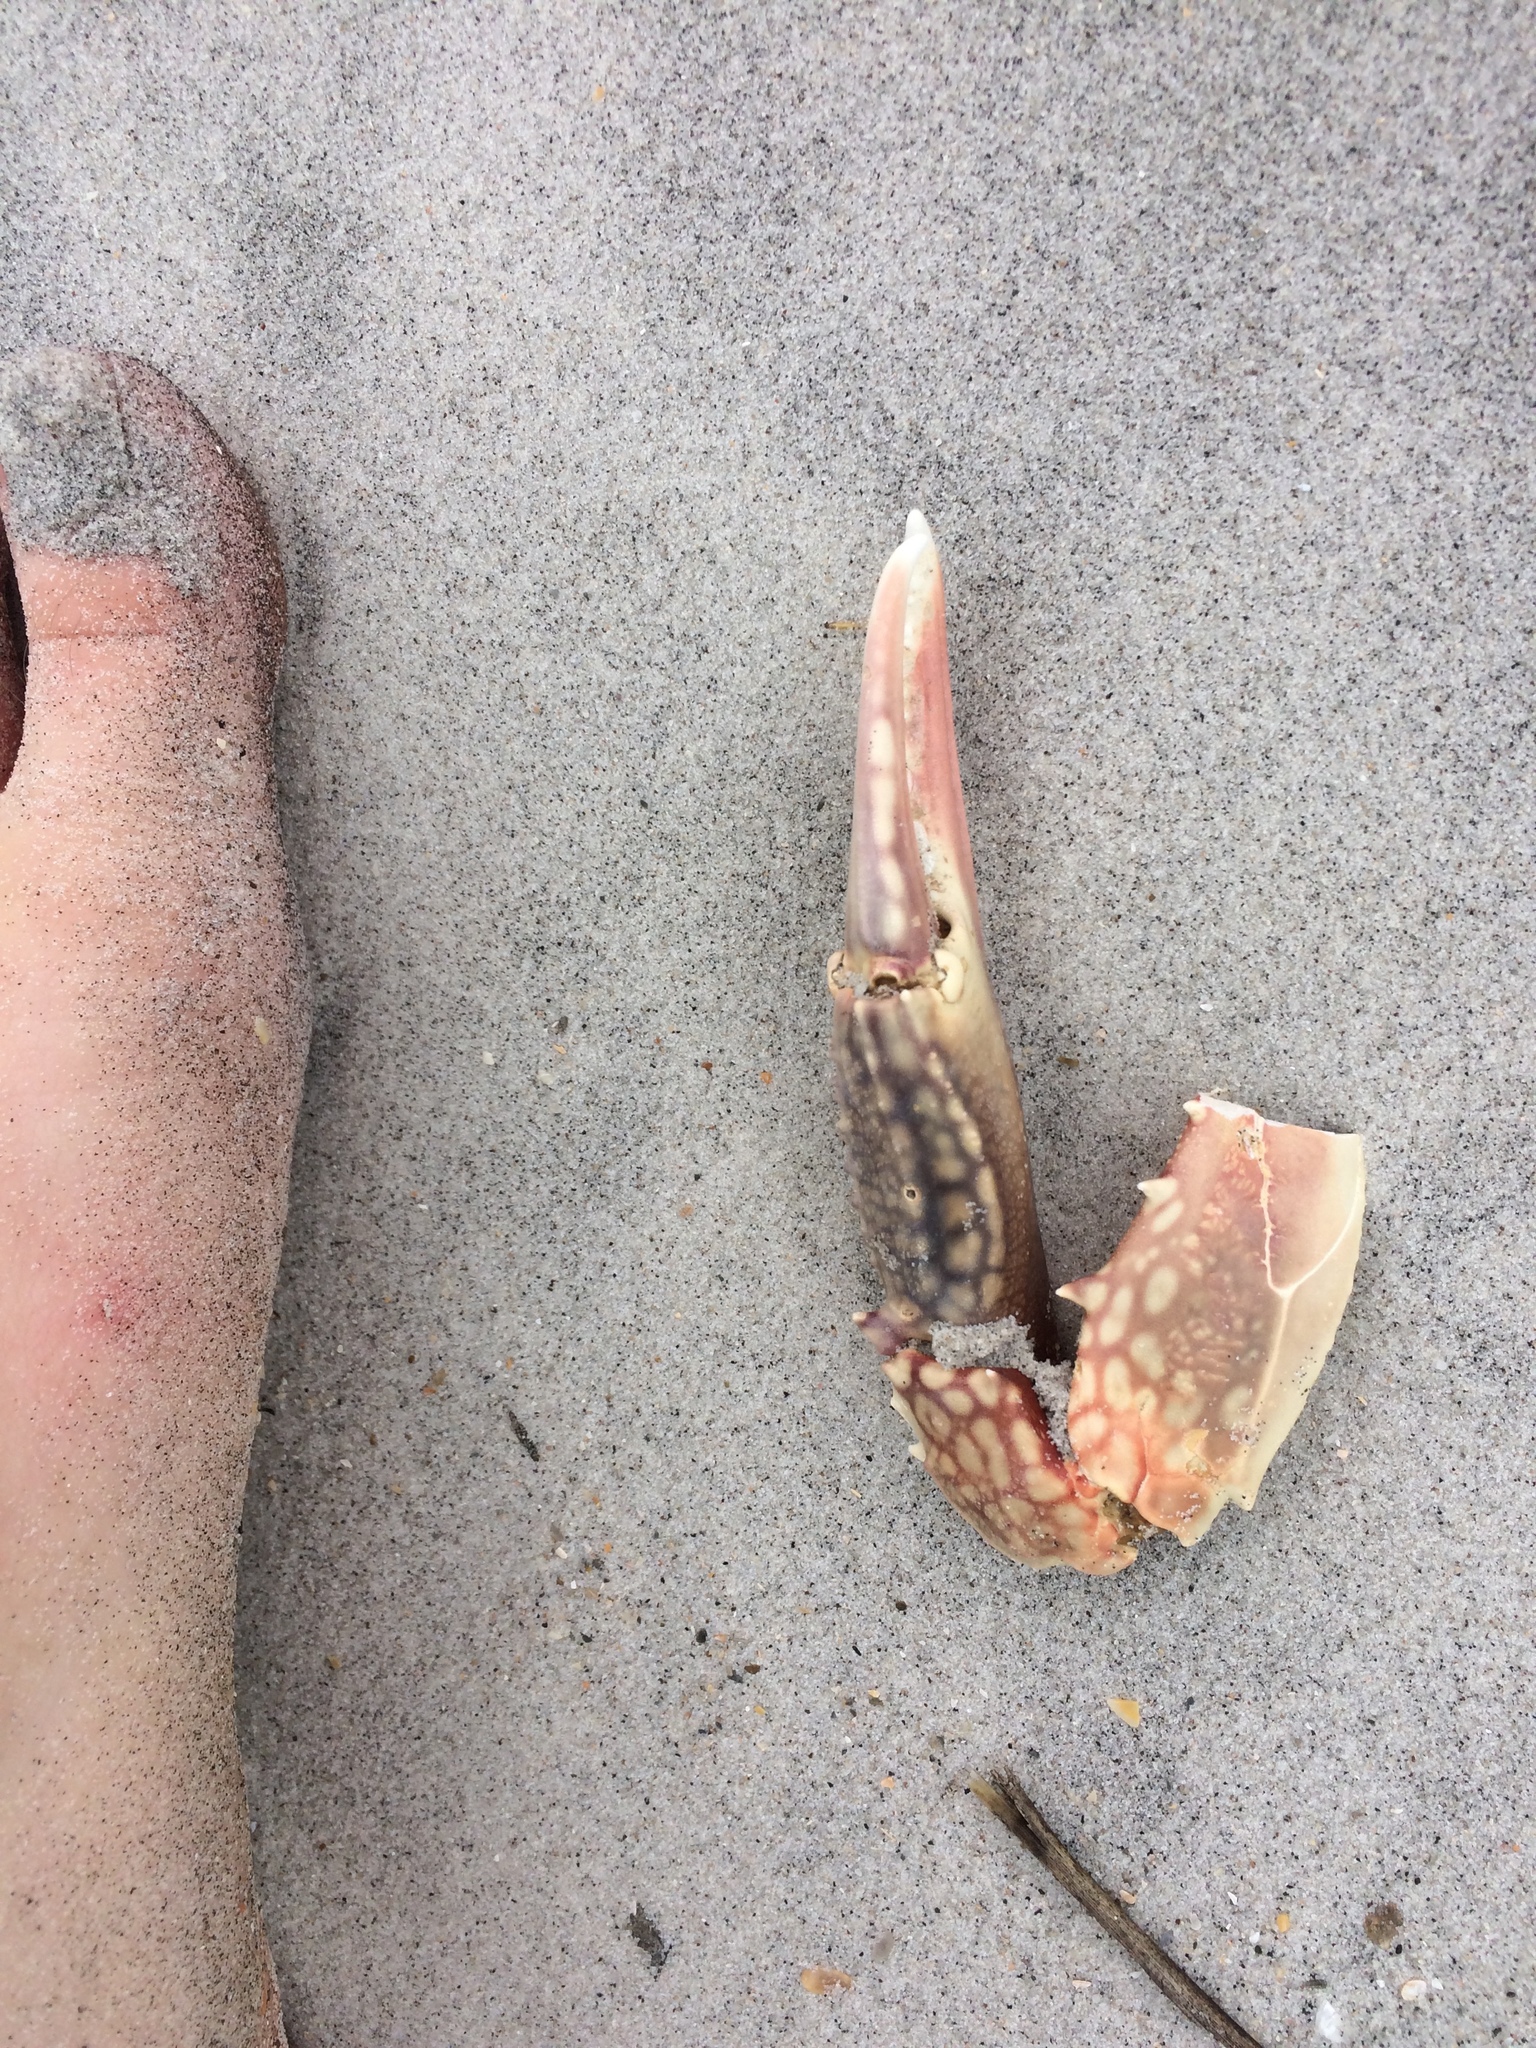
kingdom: Animalia
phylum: Arthropoda
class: Malacostraca
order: Decapoda
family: Portunidae
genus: Arenaeus
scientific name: Arenaeus cribrarius
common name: Speckled crab
